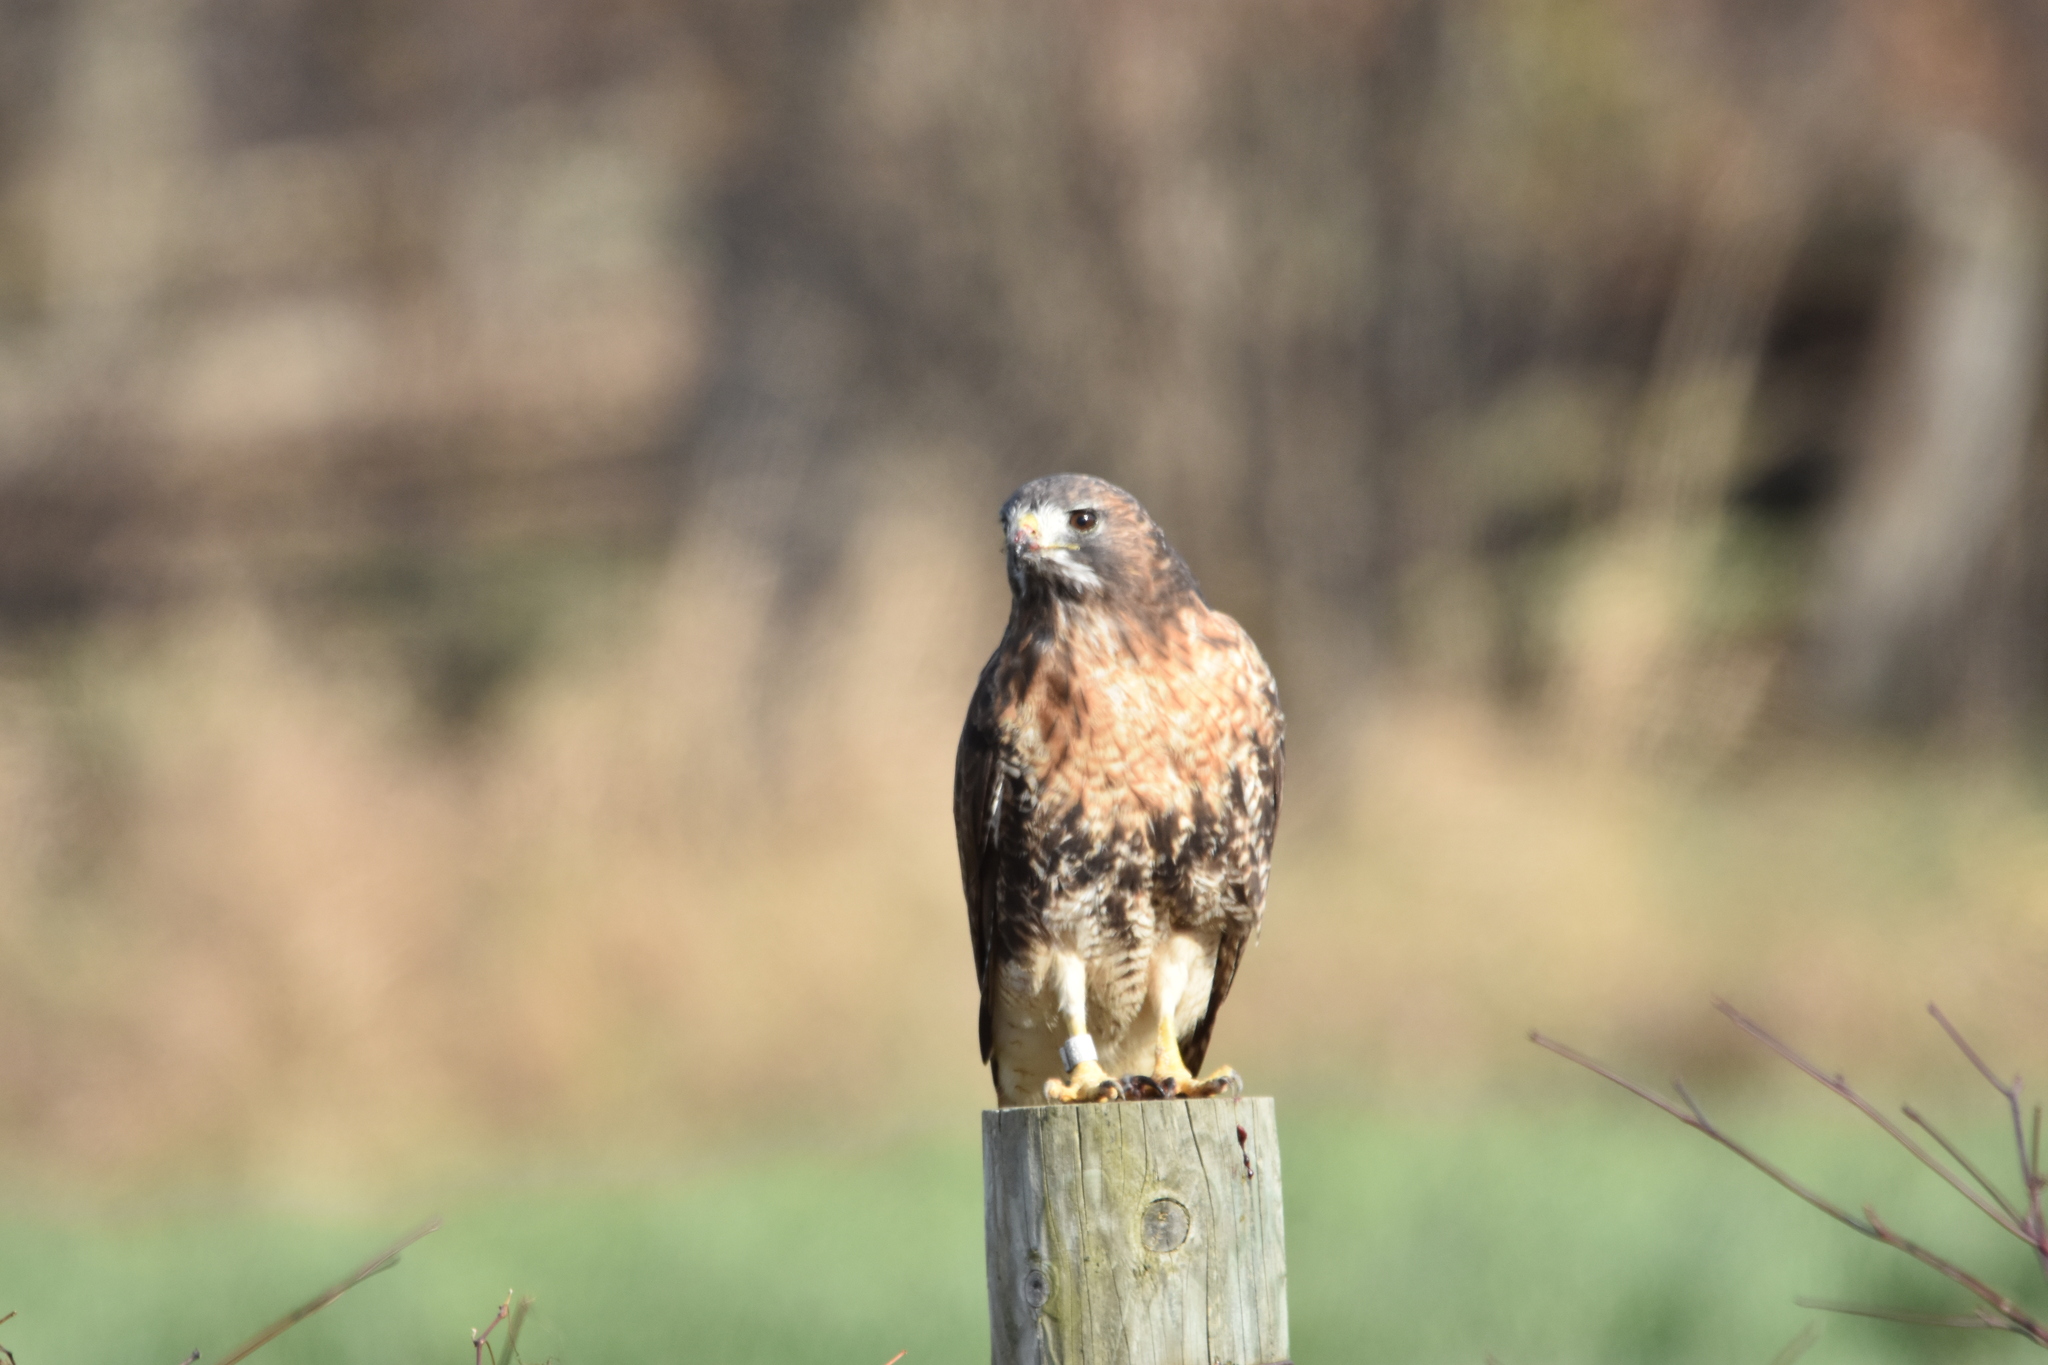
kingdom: Animalia
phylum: Chordata
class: Aves
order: Accipitriformes
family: Accipitridae
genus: Buteo
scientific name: Buteo jamaicensis
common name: Red-tailed hawk
